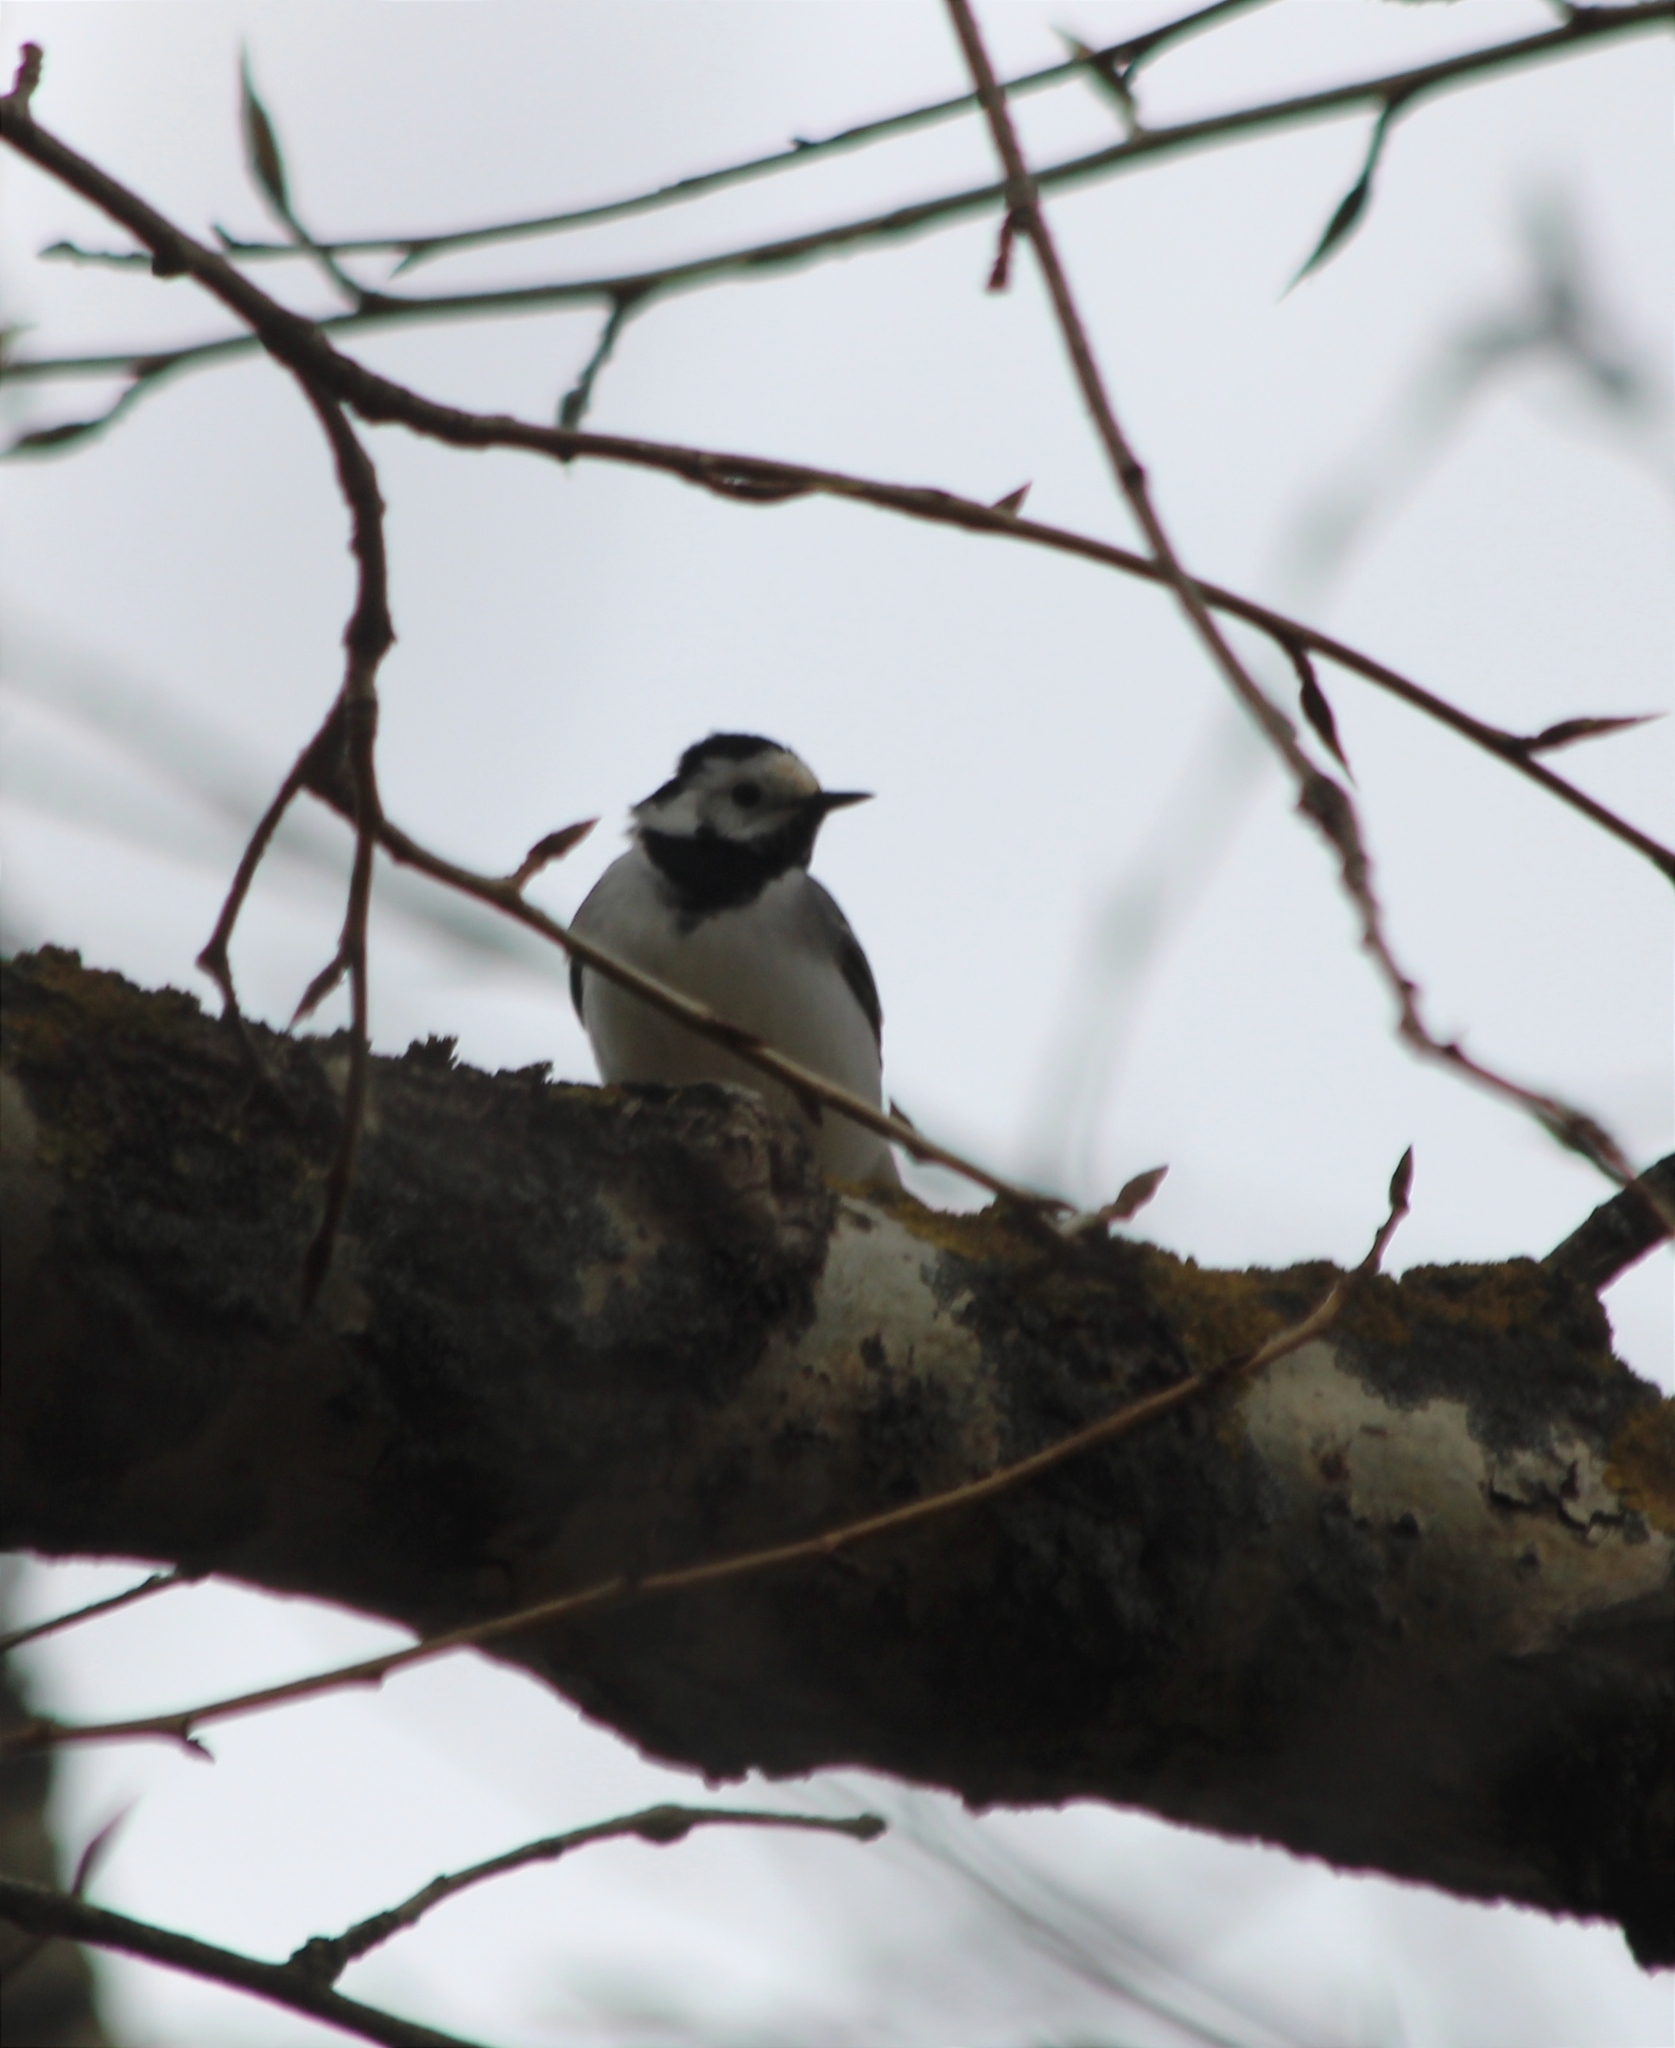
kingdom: Animalia
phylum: Chordata
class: Aves
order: Passeriformes
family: Motacillidae
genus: Motacilla
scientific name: Motacilla alba
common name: White wagtail
